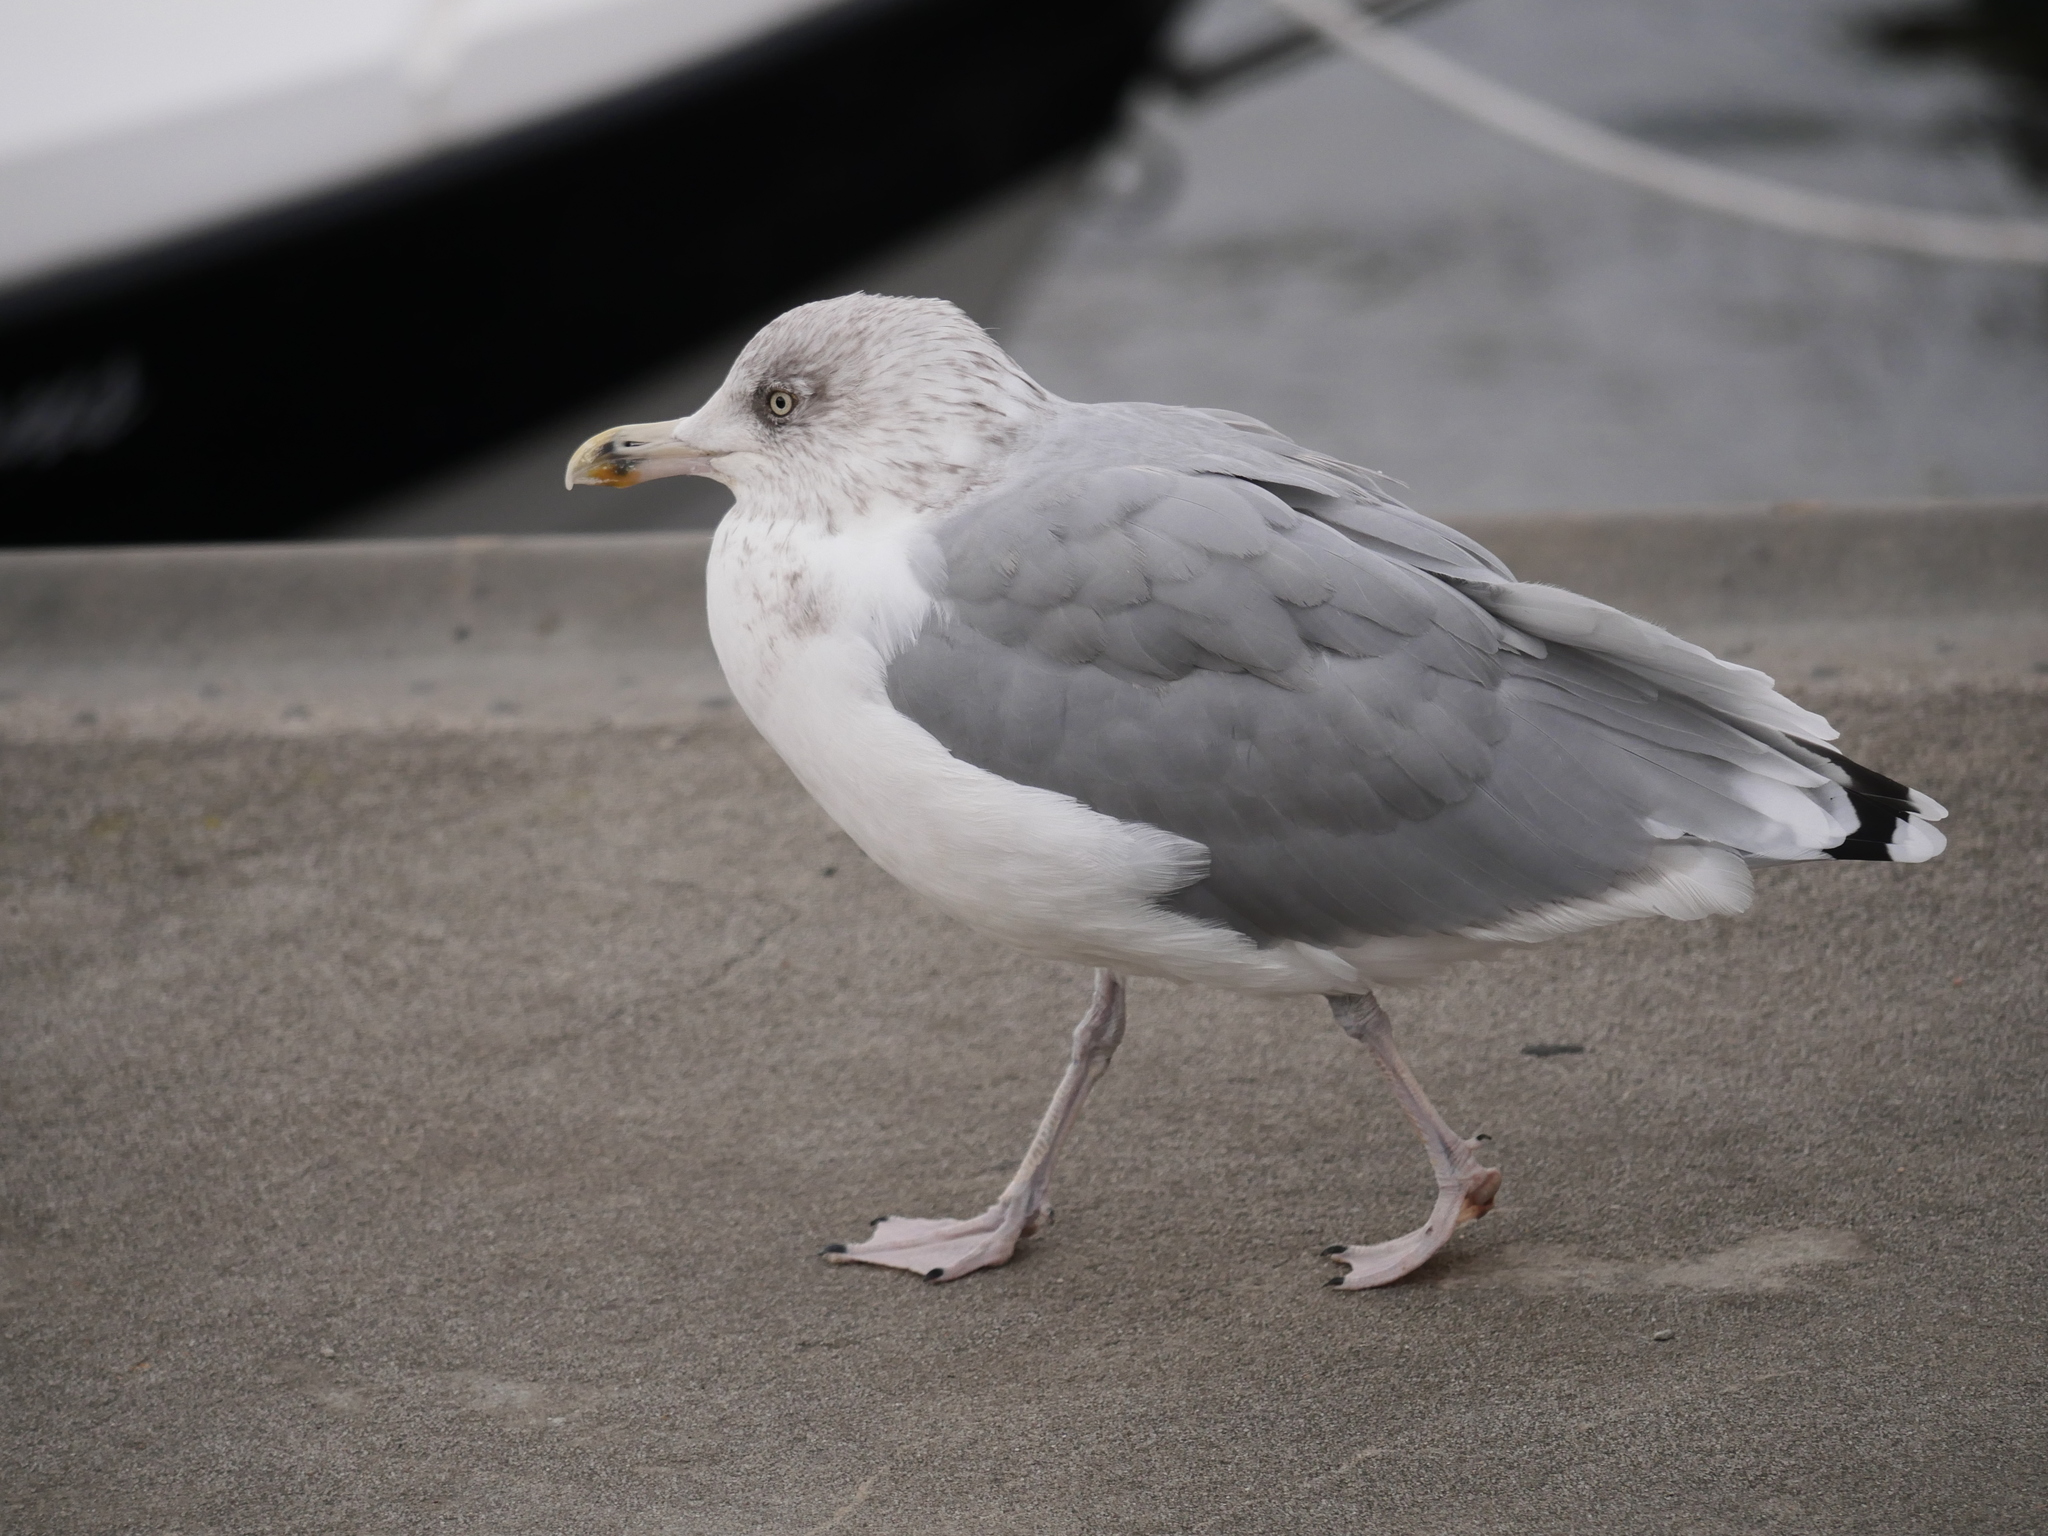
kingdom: Animalia
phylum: Chordata
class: Aves
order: Charadriiformes
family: Laridae
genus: Larus
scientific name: Larus argentatus
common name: Herring gull
